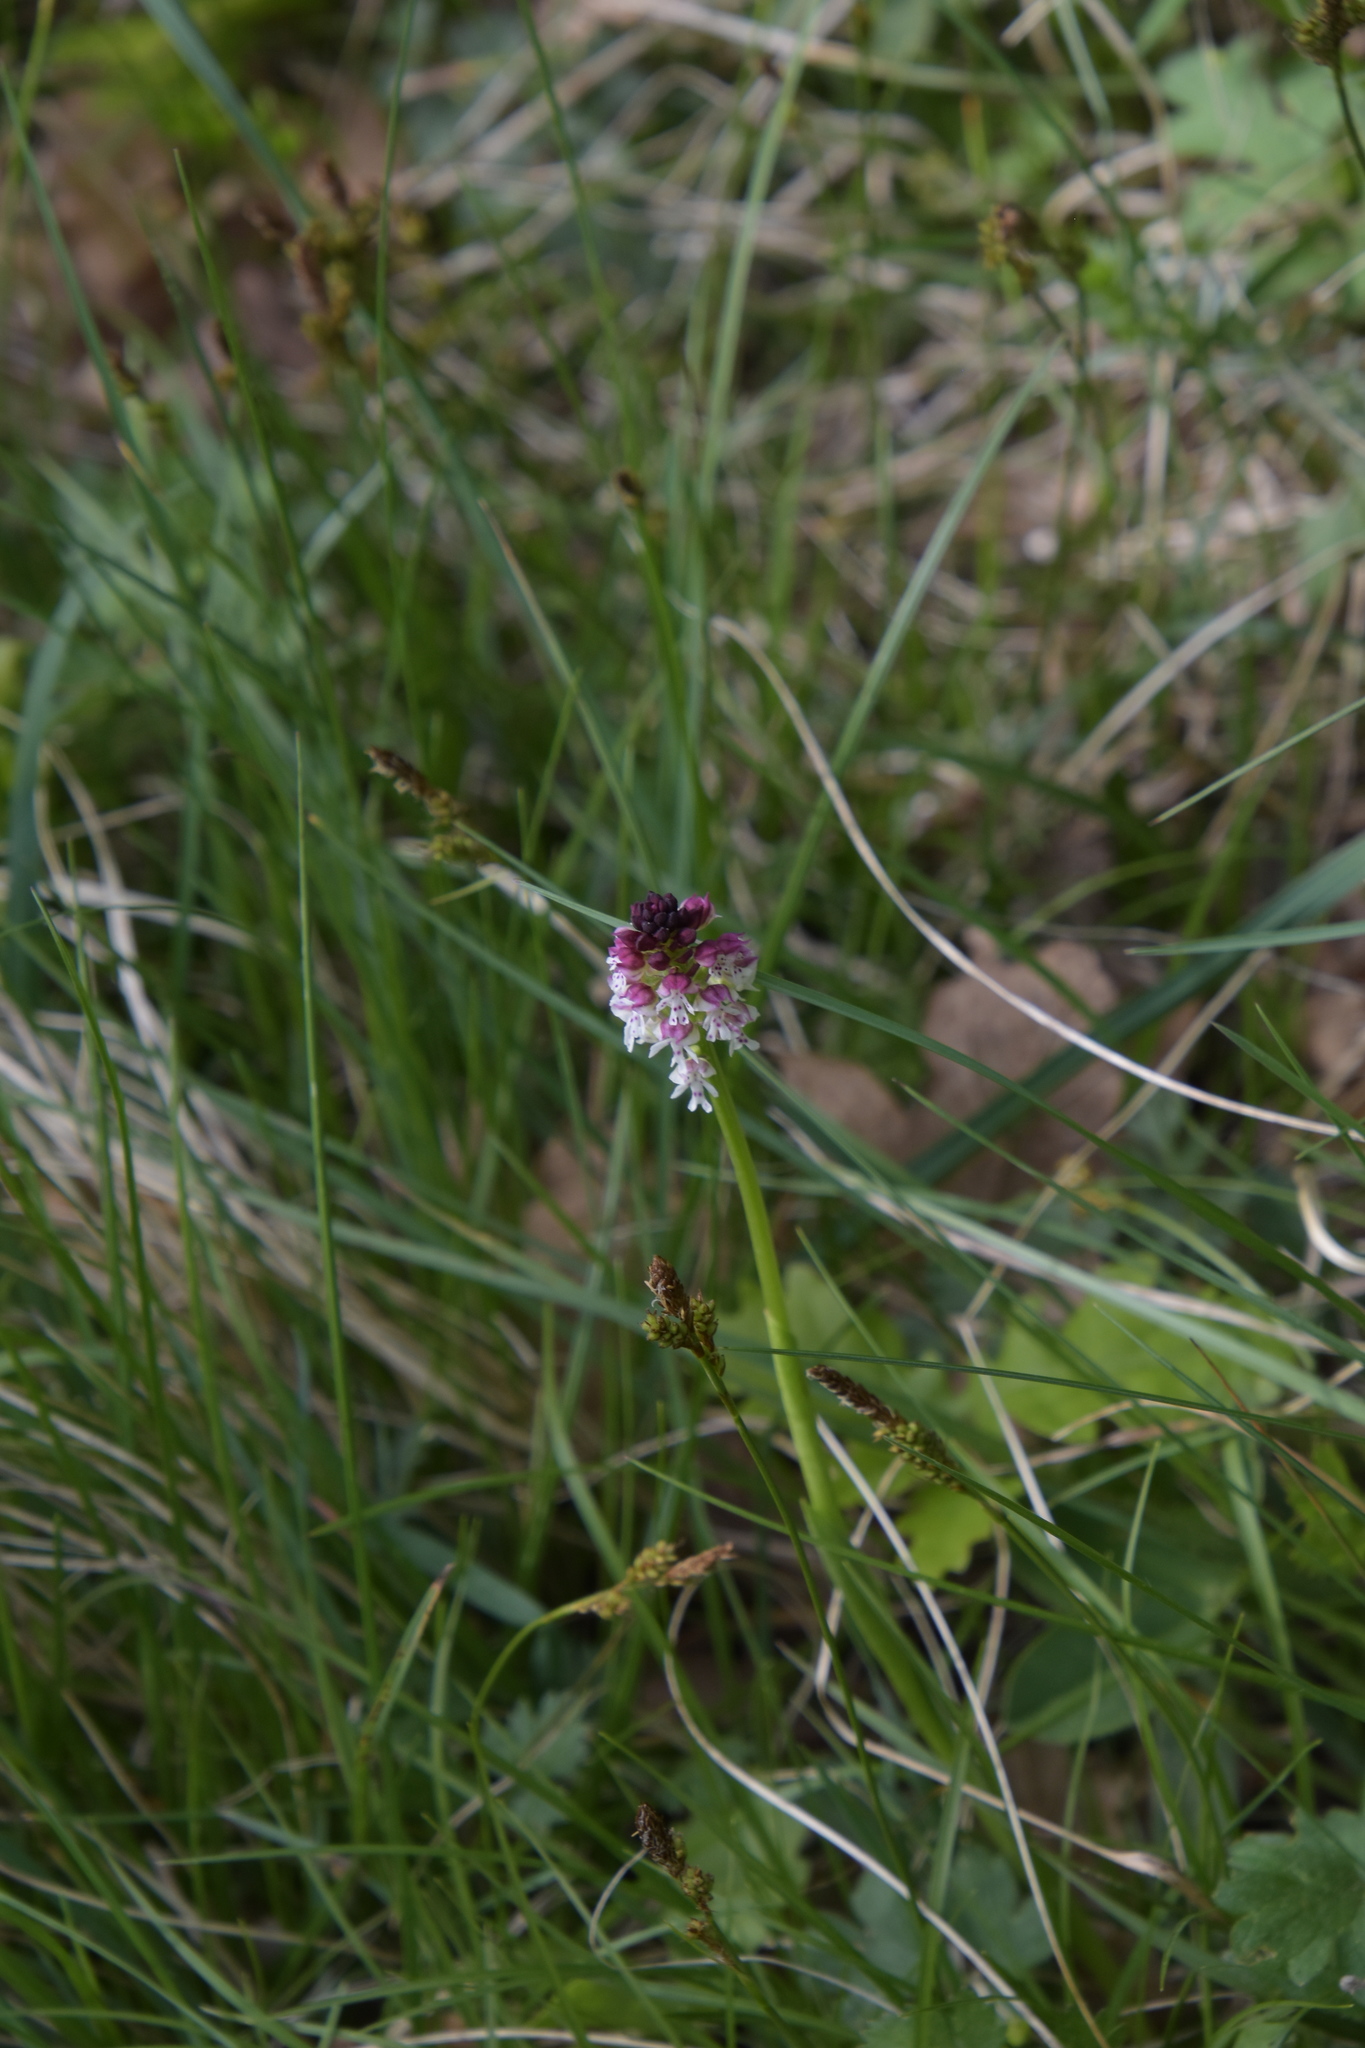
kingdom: Plantae
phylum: Tracheophyta
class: Liliopsida
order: Asparagales
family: Orchidaceae
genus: Neotinea
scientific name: Neotinea ustulata
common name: Burnt orchid
